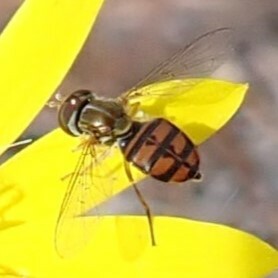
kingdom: Animalia
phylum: Arthropoda
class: Insecta
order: Diptera
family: Syrphidae
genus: Toxomerus
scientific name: Toxomerus floralis
